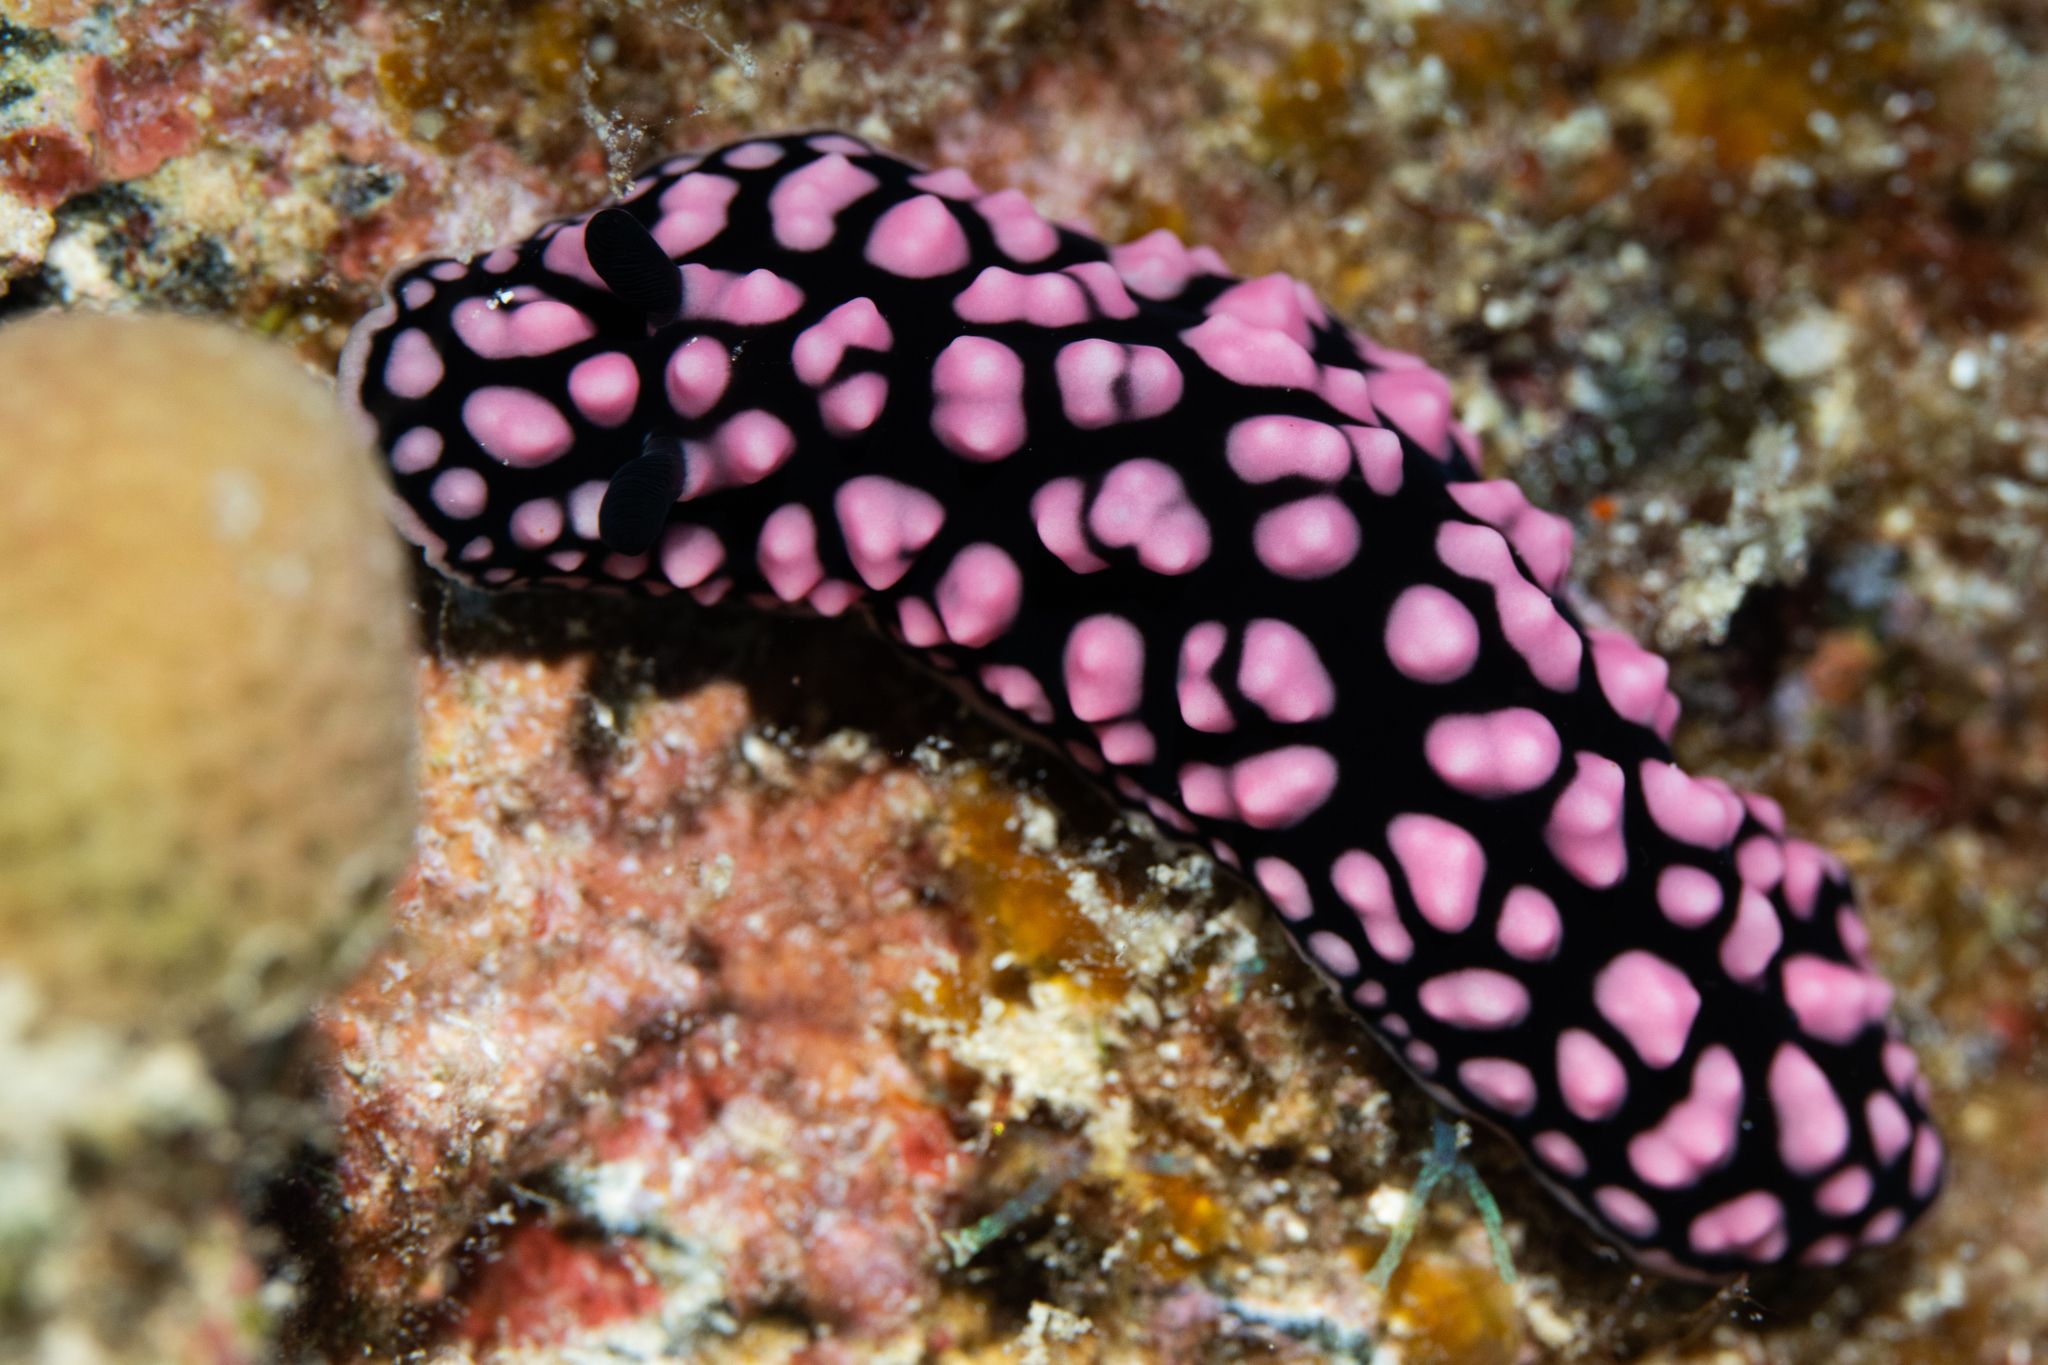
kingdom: Animalia
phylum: Mollusca
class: Gastropoda
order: Nudibranchia
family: Phyllidiidae
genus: Phyllidiella
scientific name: Phyllidiella pustulosa
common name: Pustular phyllidia
